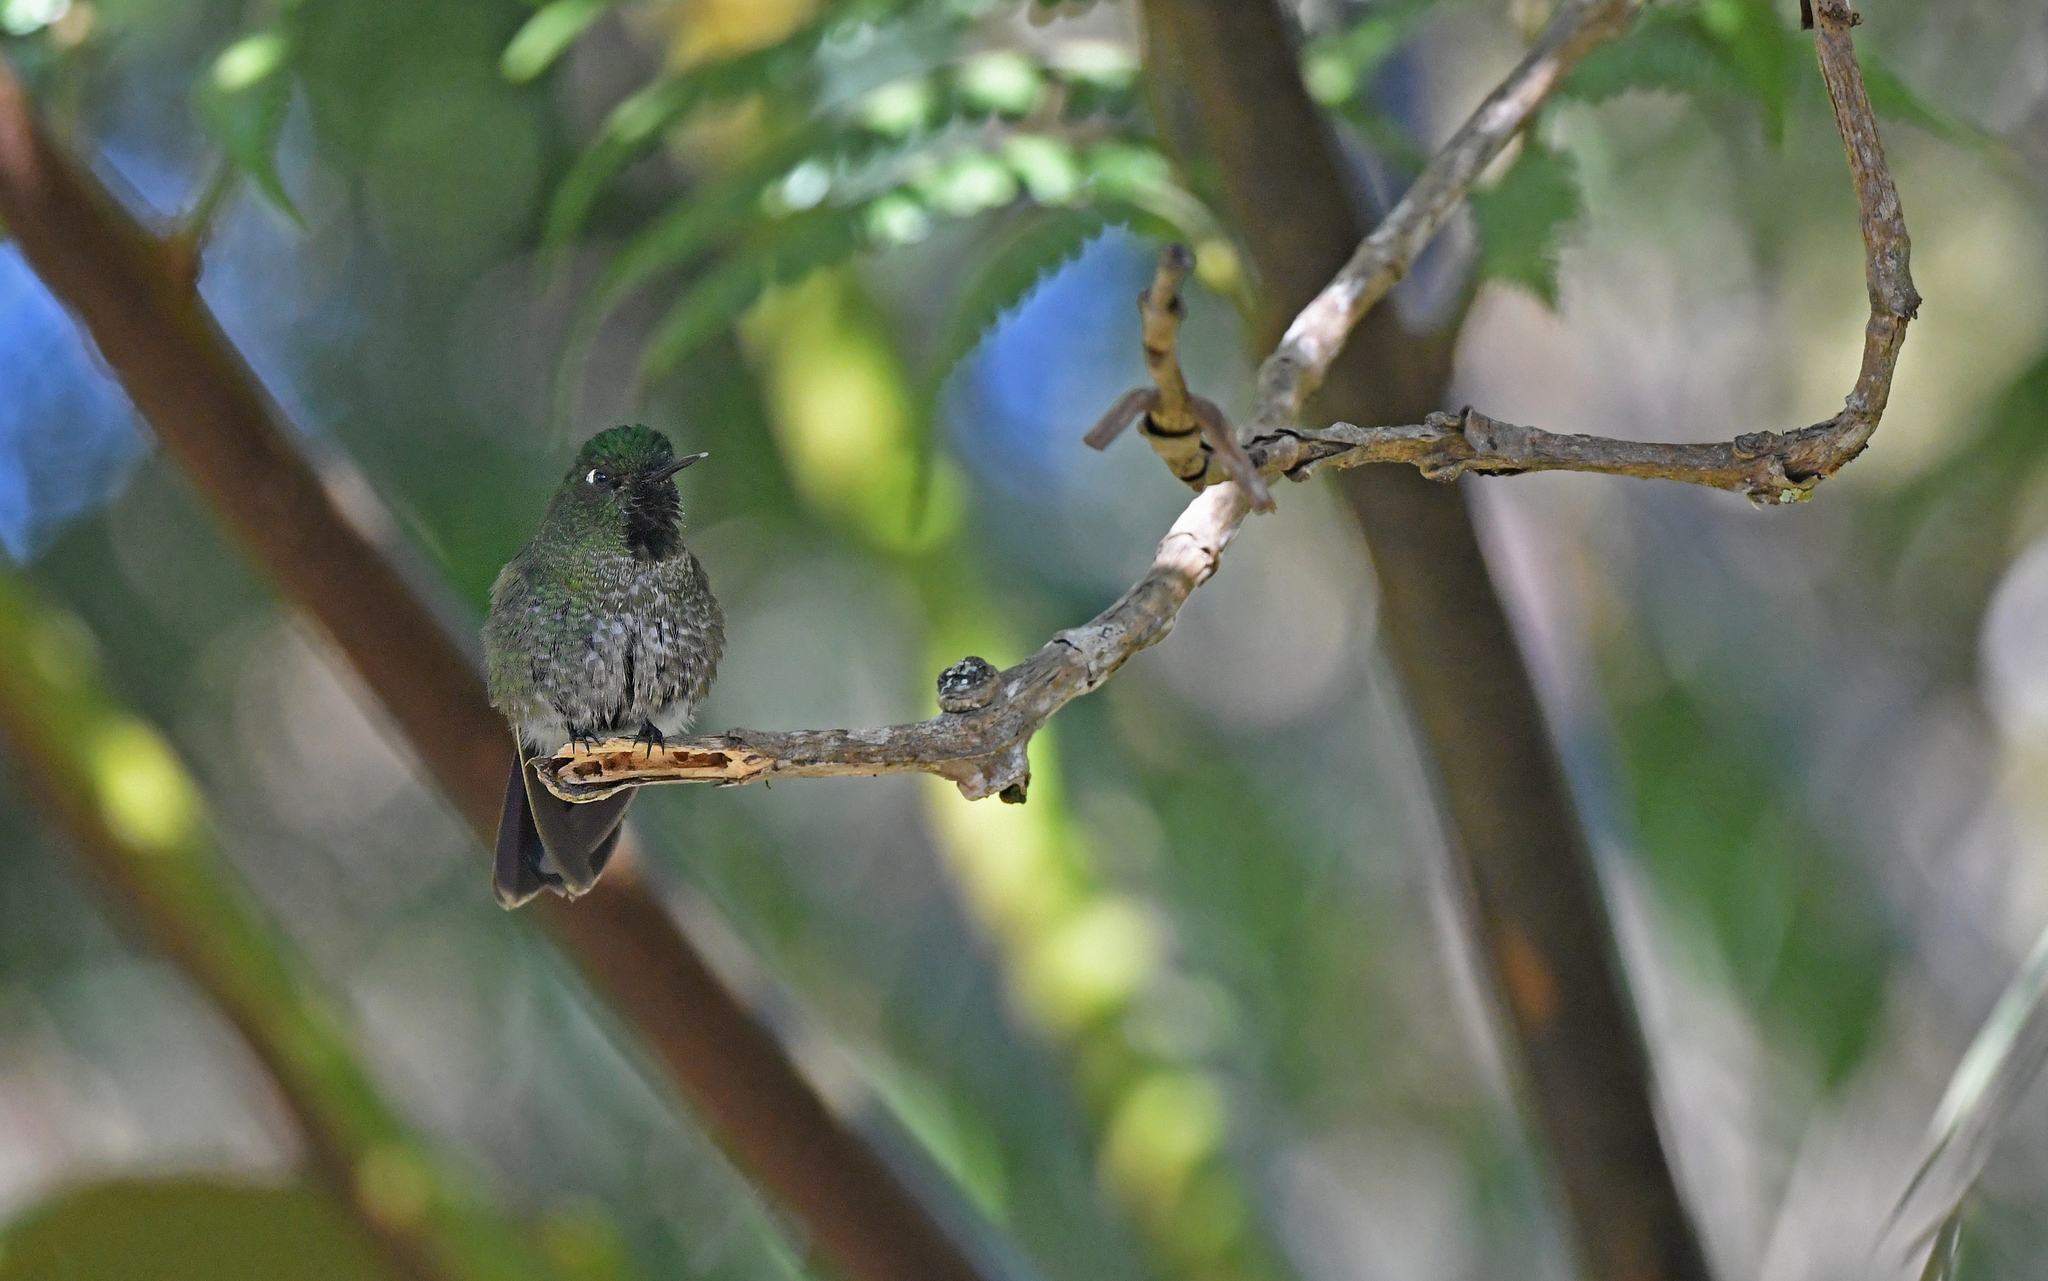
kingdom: Animalia
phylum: Chordata
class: Aves
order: Apodiformes
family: Trochilidae
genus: Metallura
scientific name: Metallura tyrianthina
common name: Tyrian metaltail
